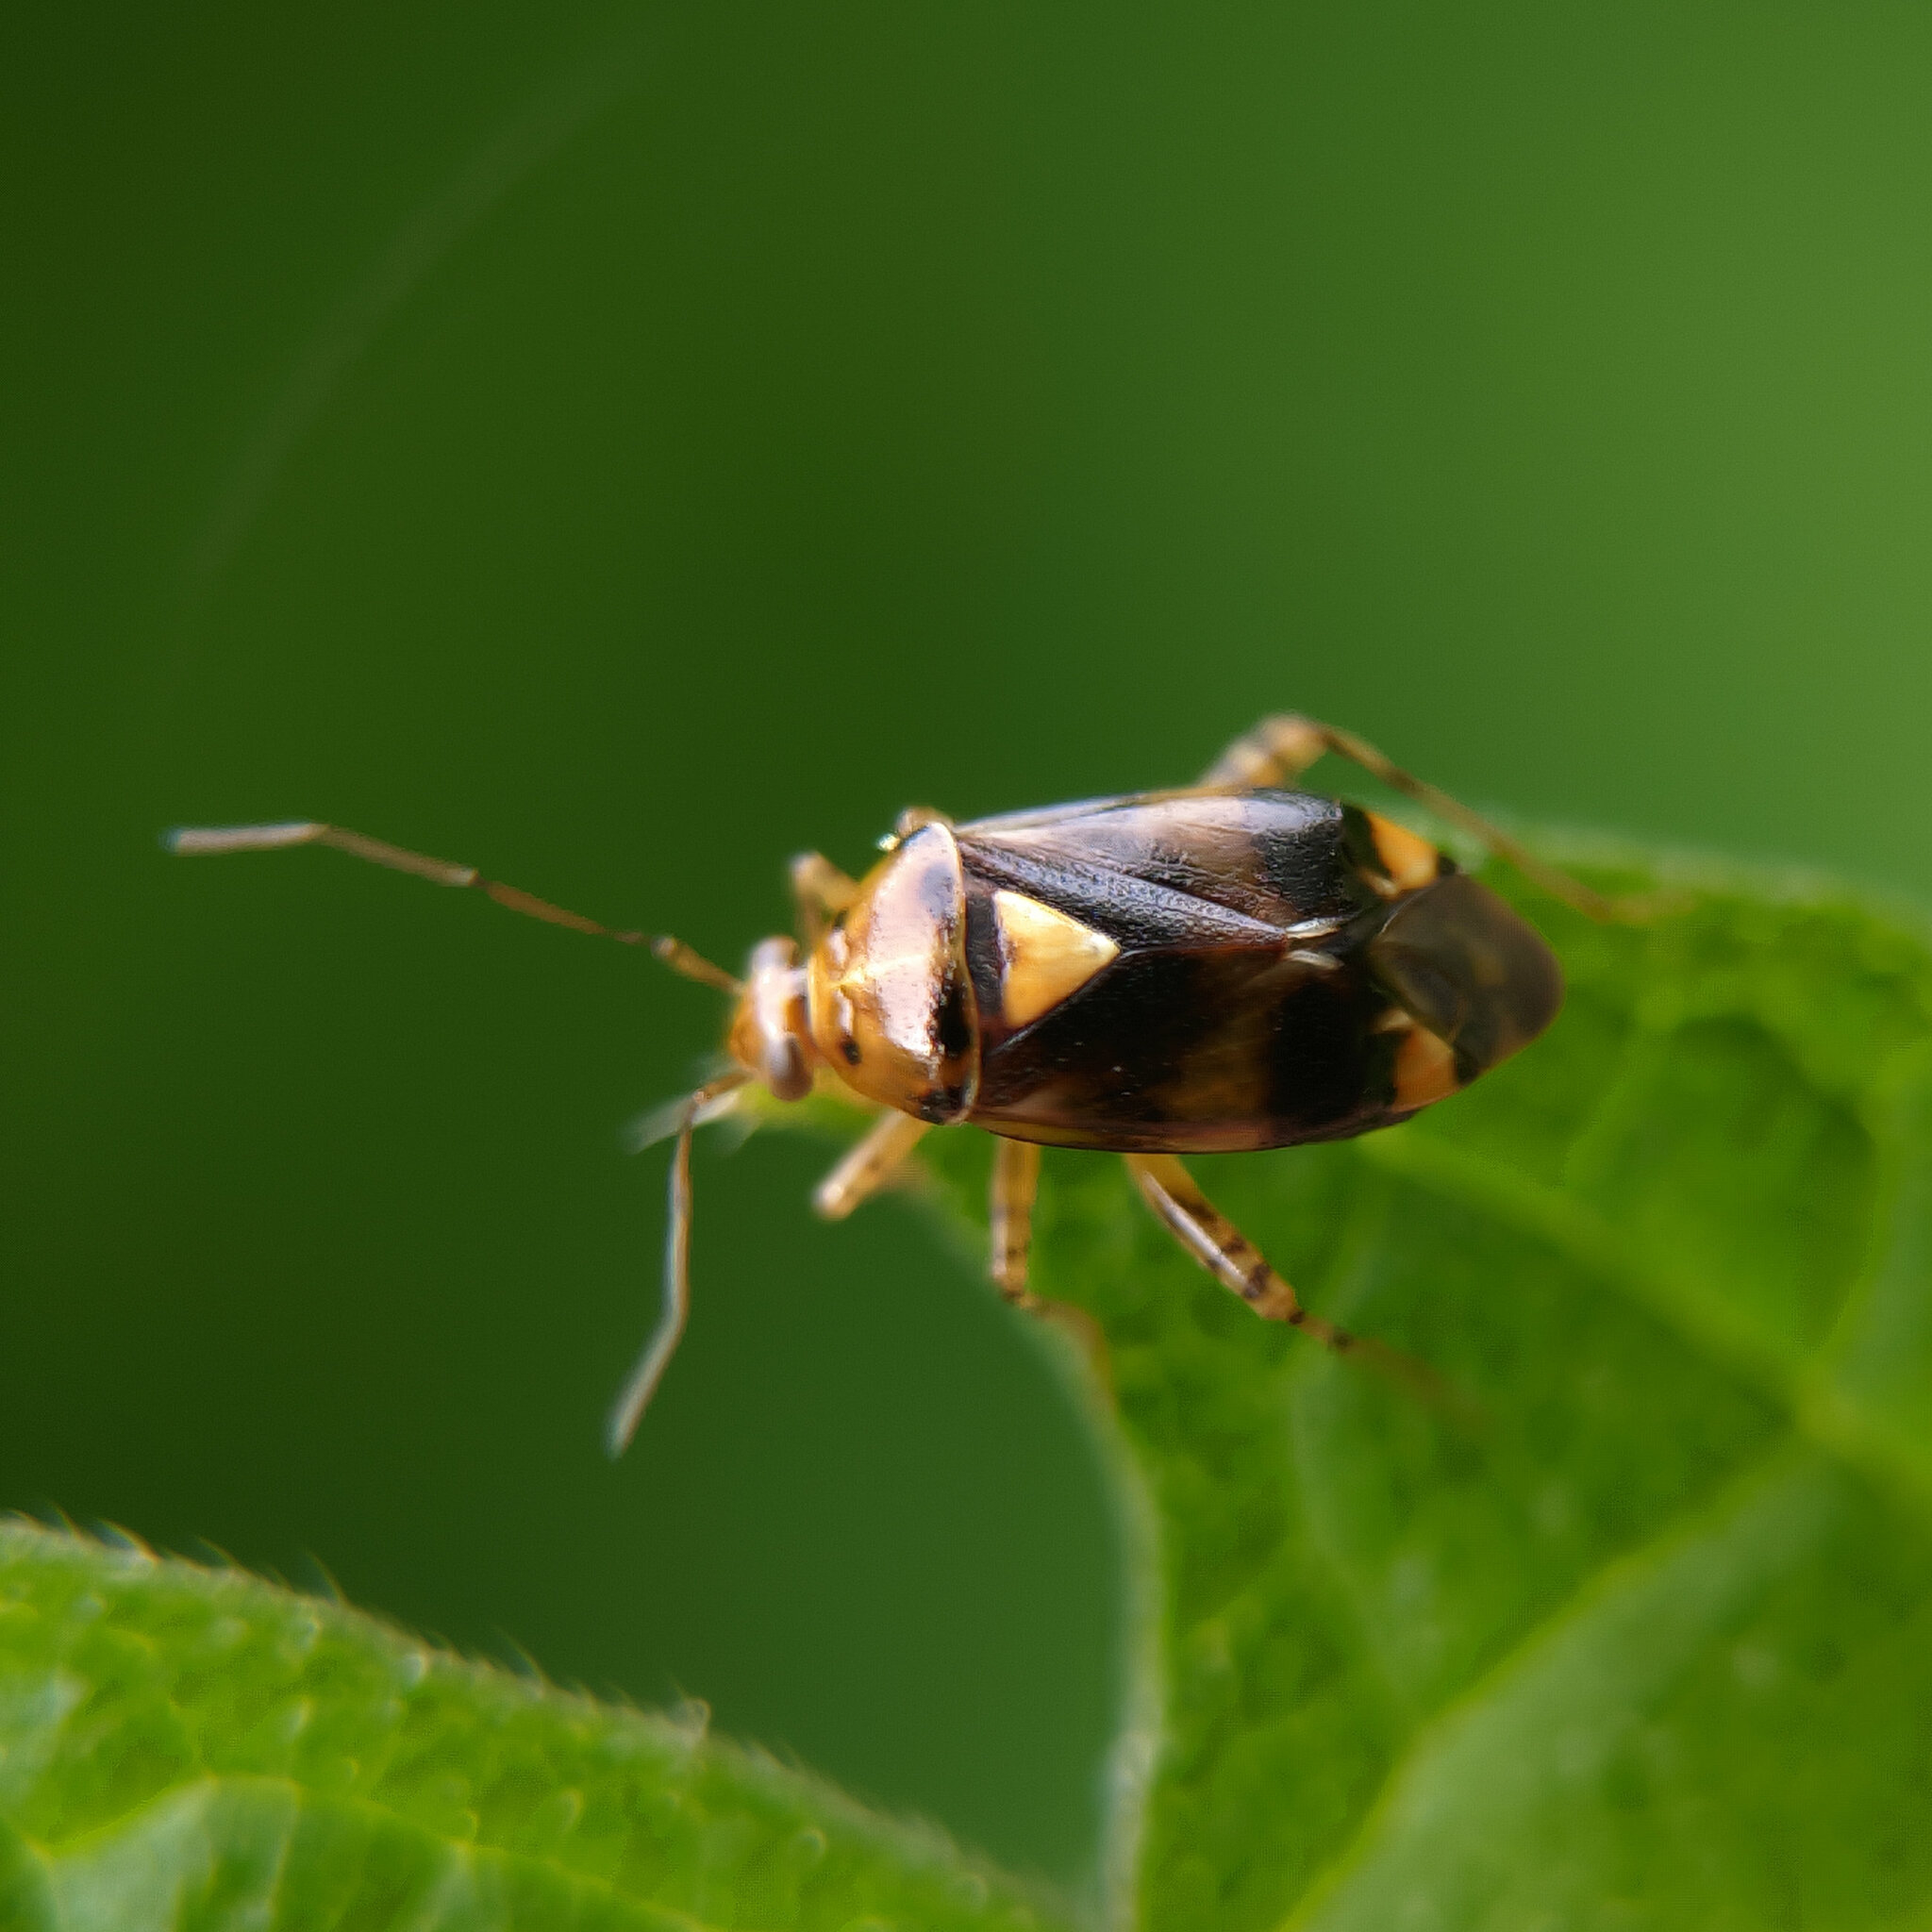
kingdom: Animalia
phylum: Arthropoda
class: Insecta
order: Hemiptera
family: Miridae
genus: Liocoris
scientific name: Liocoris tripustulatus
